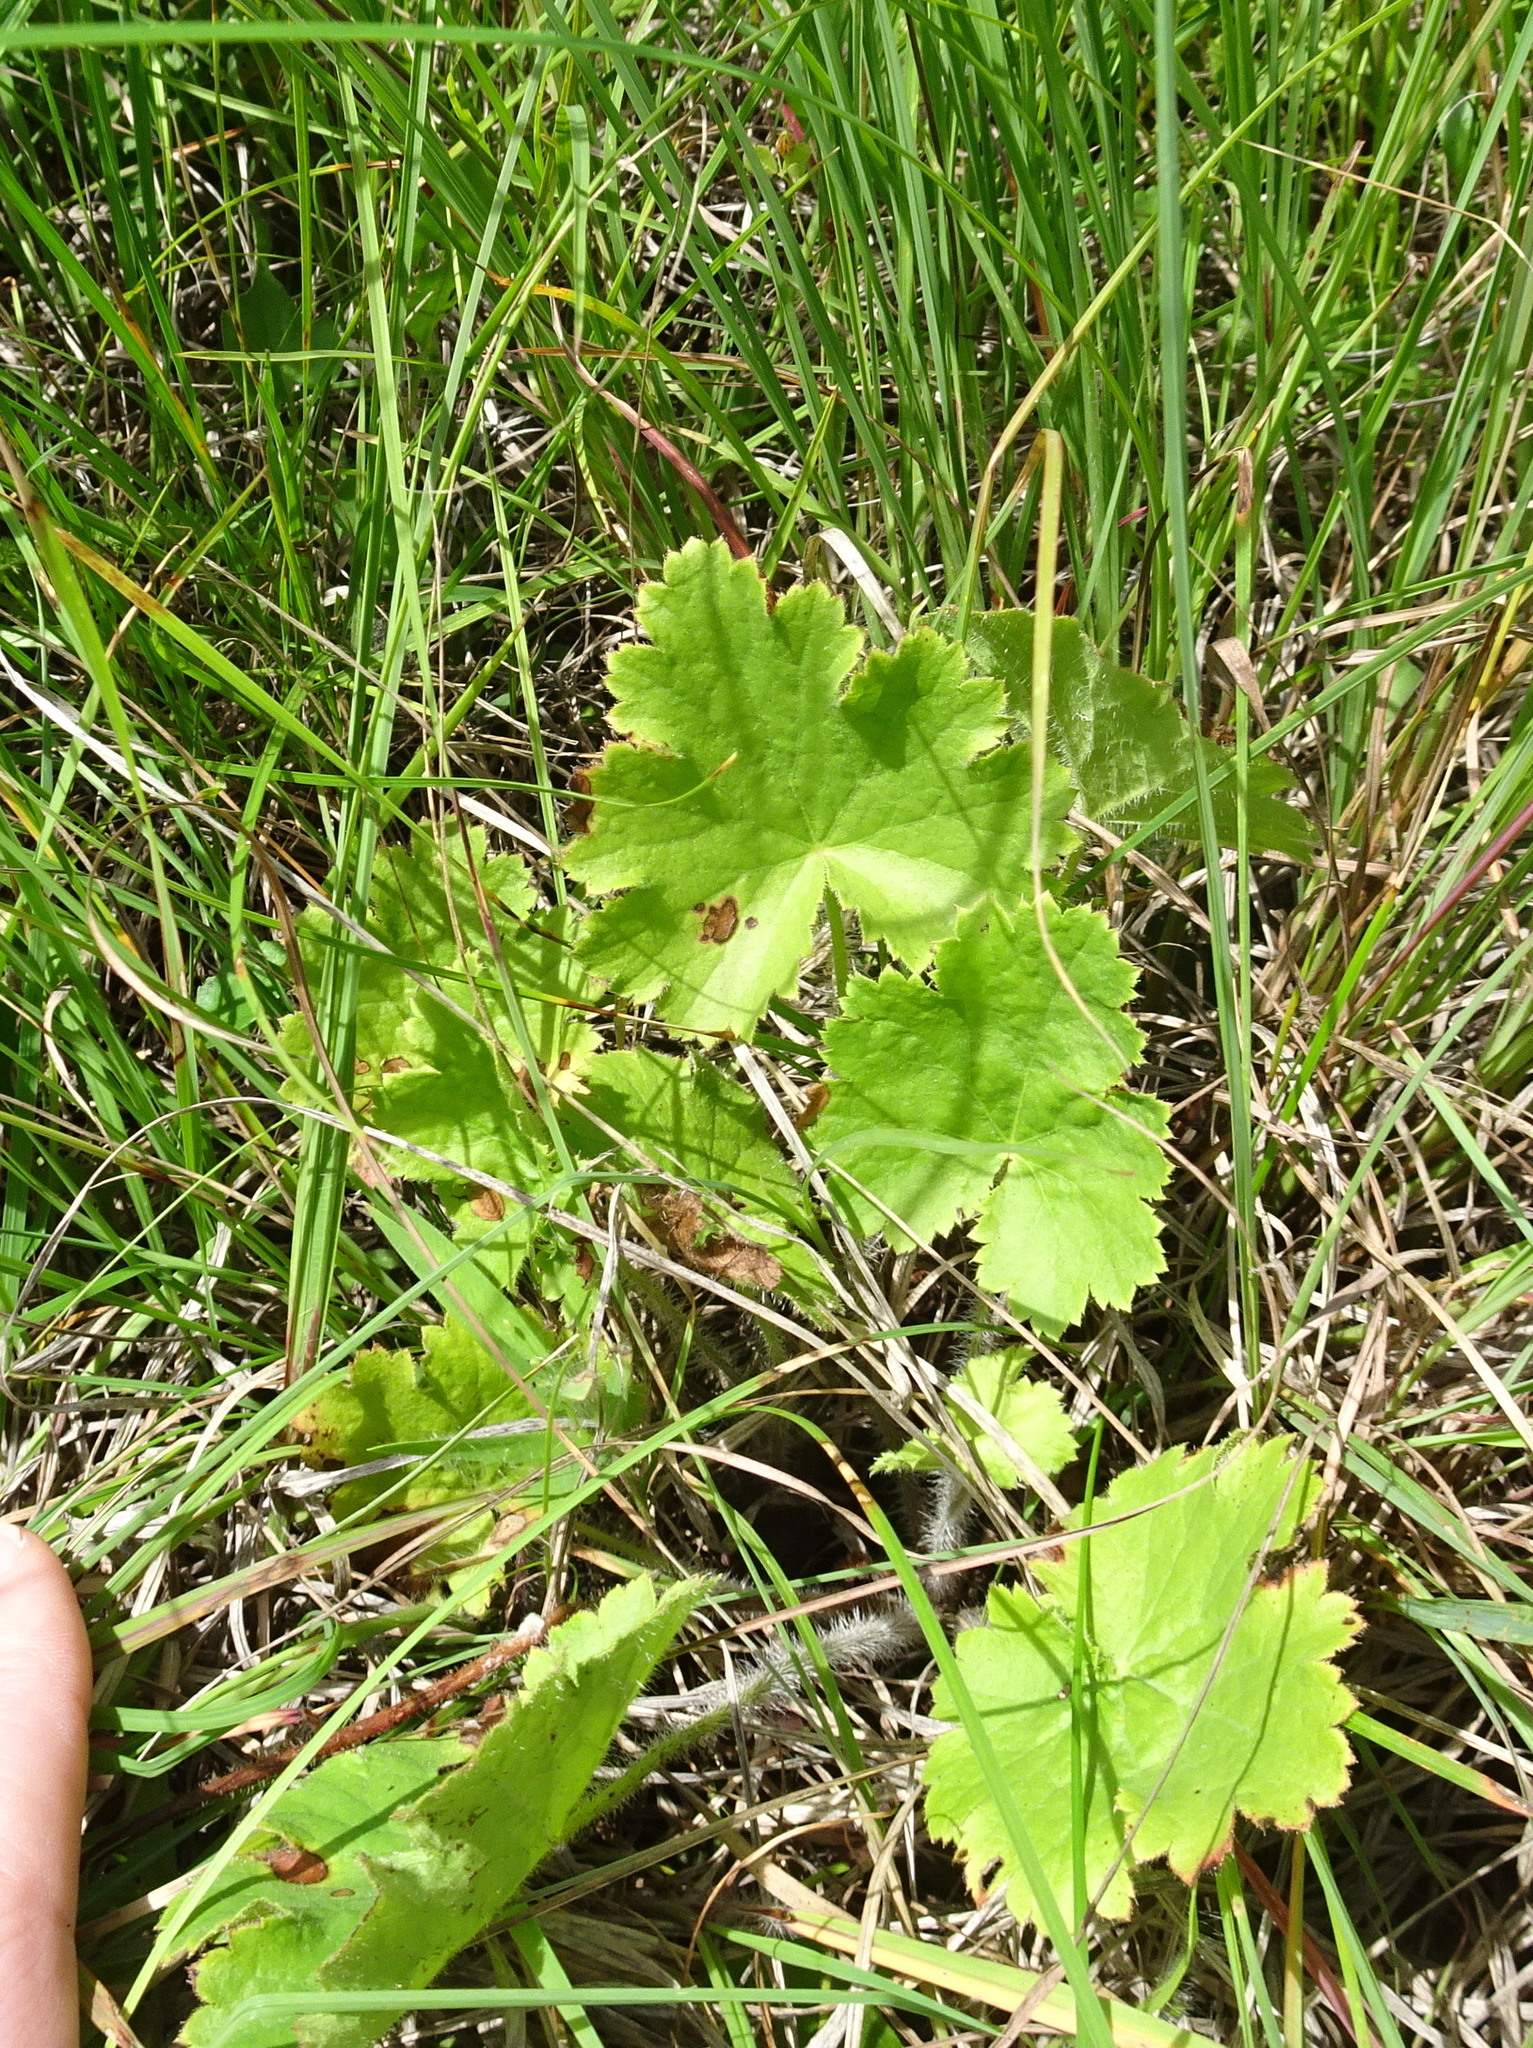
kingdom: Plantae
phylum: Tracheophyta
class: Magnoliopsida
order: Saxifragales
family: Saxifragaceae
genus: Heuchera
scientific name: Heuchera richardsonii
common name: Richardson's alumroot
